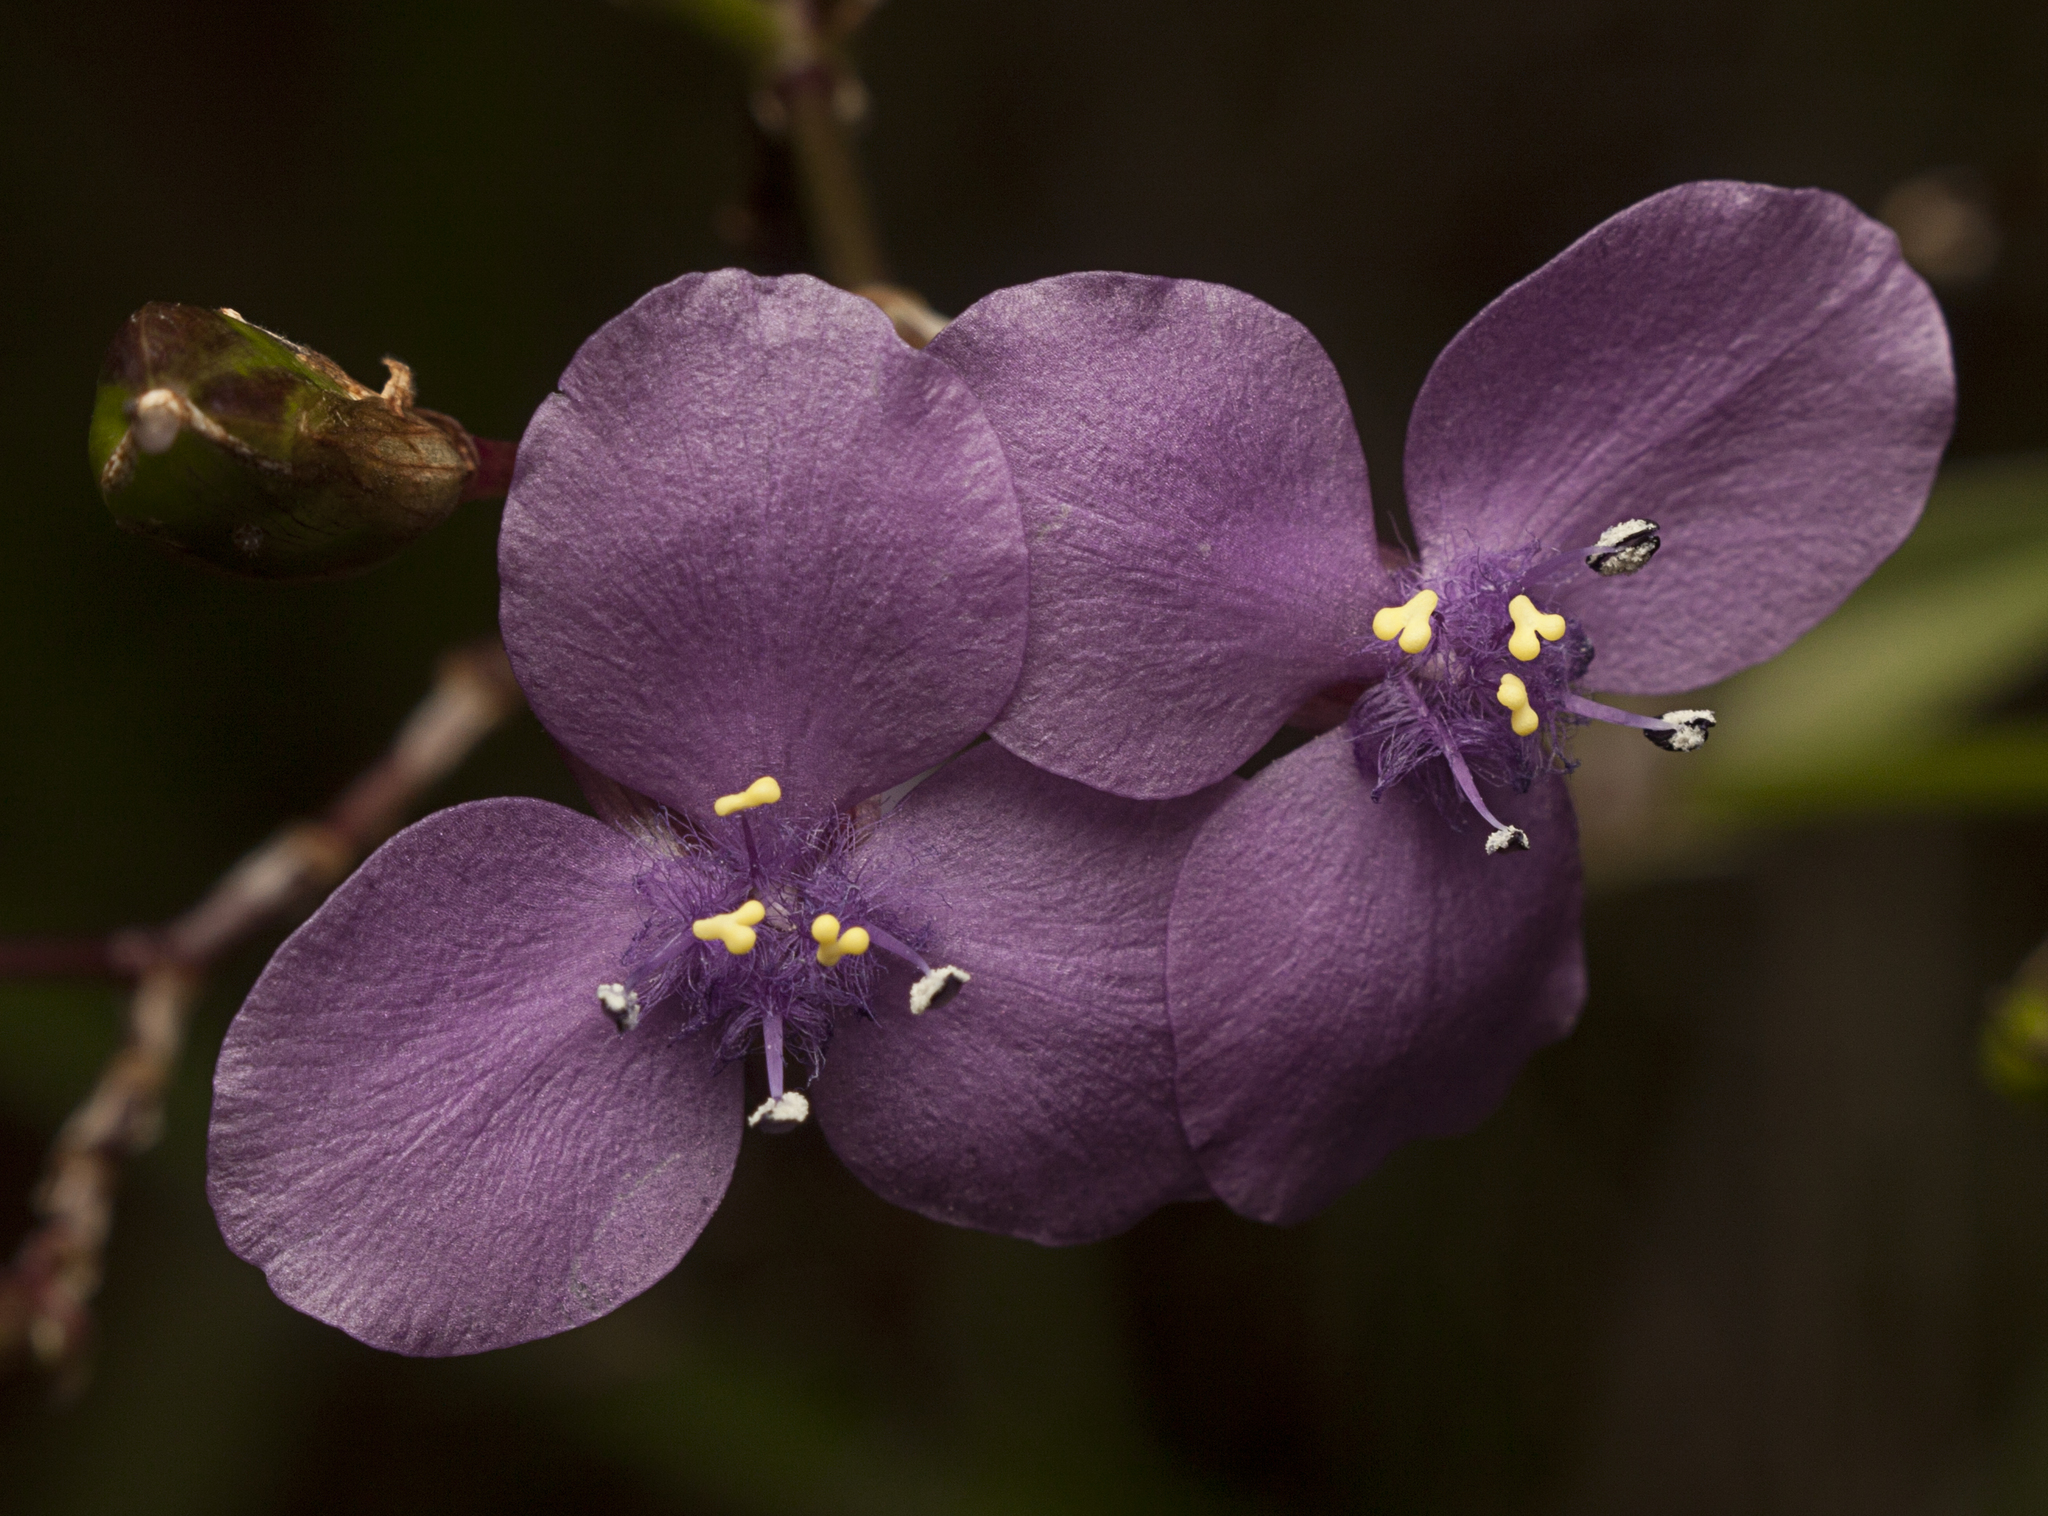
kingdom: Plantae
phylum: Tracheophyta
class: Liliopsida
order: Commelinales
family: Commelinaceae
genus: Murdannia
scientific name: Murdannia graminea
